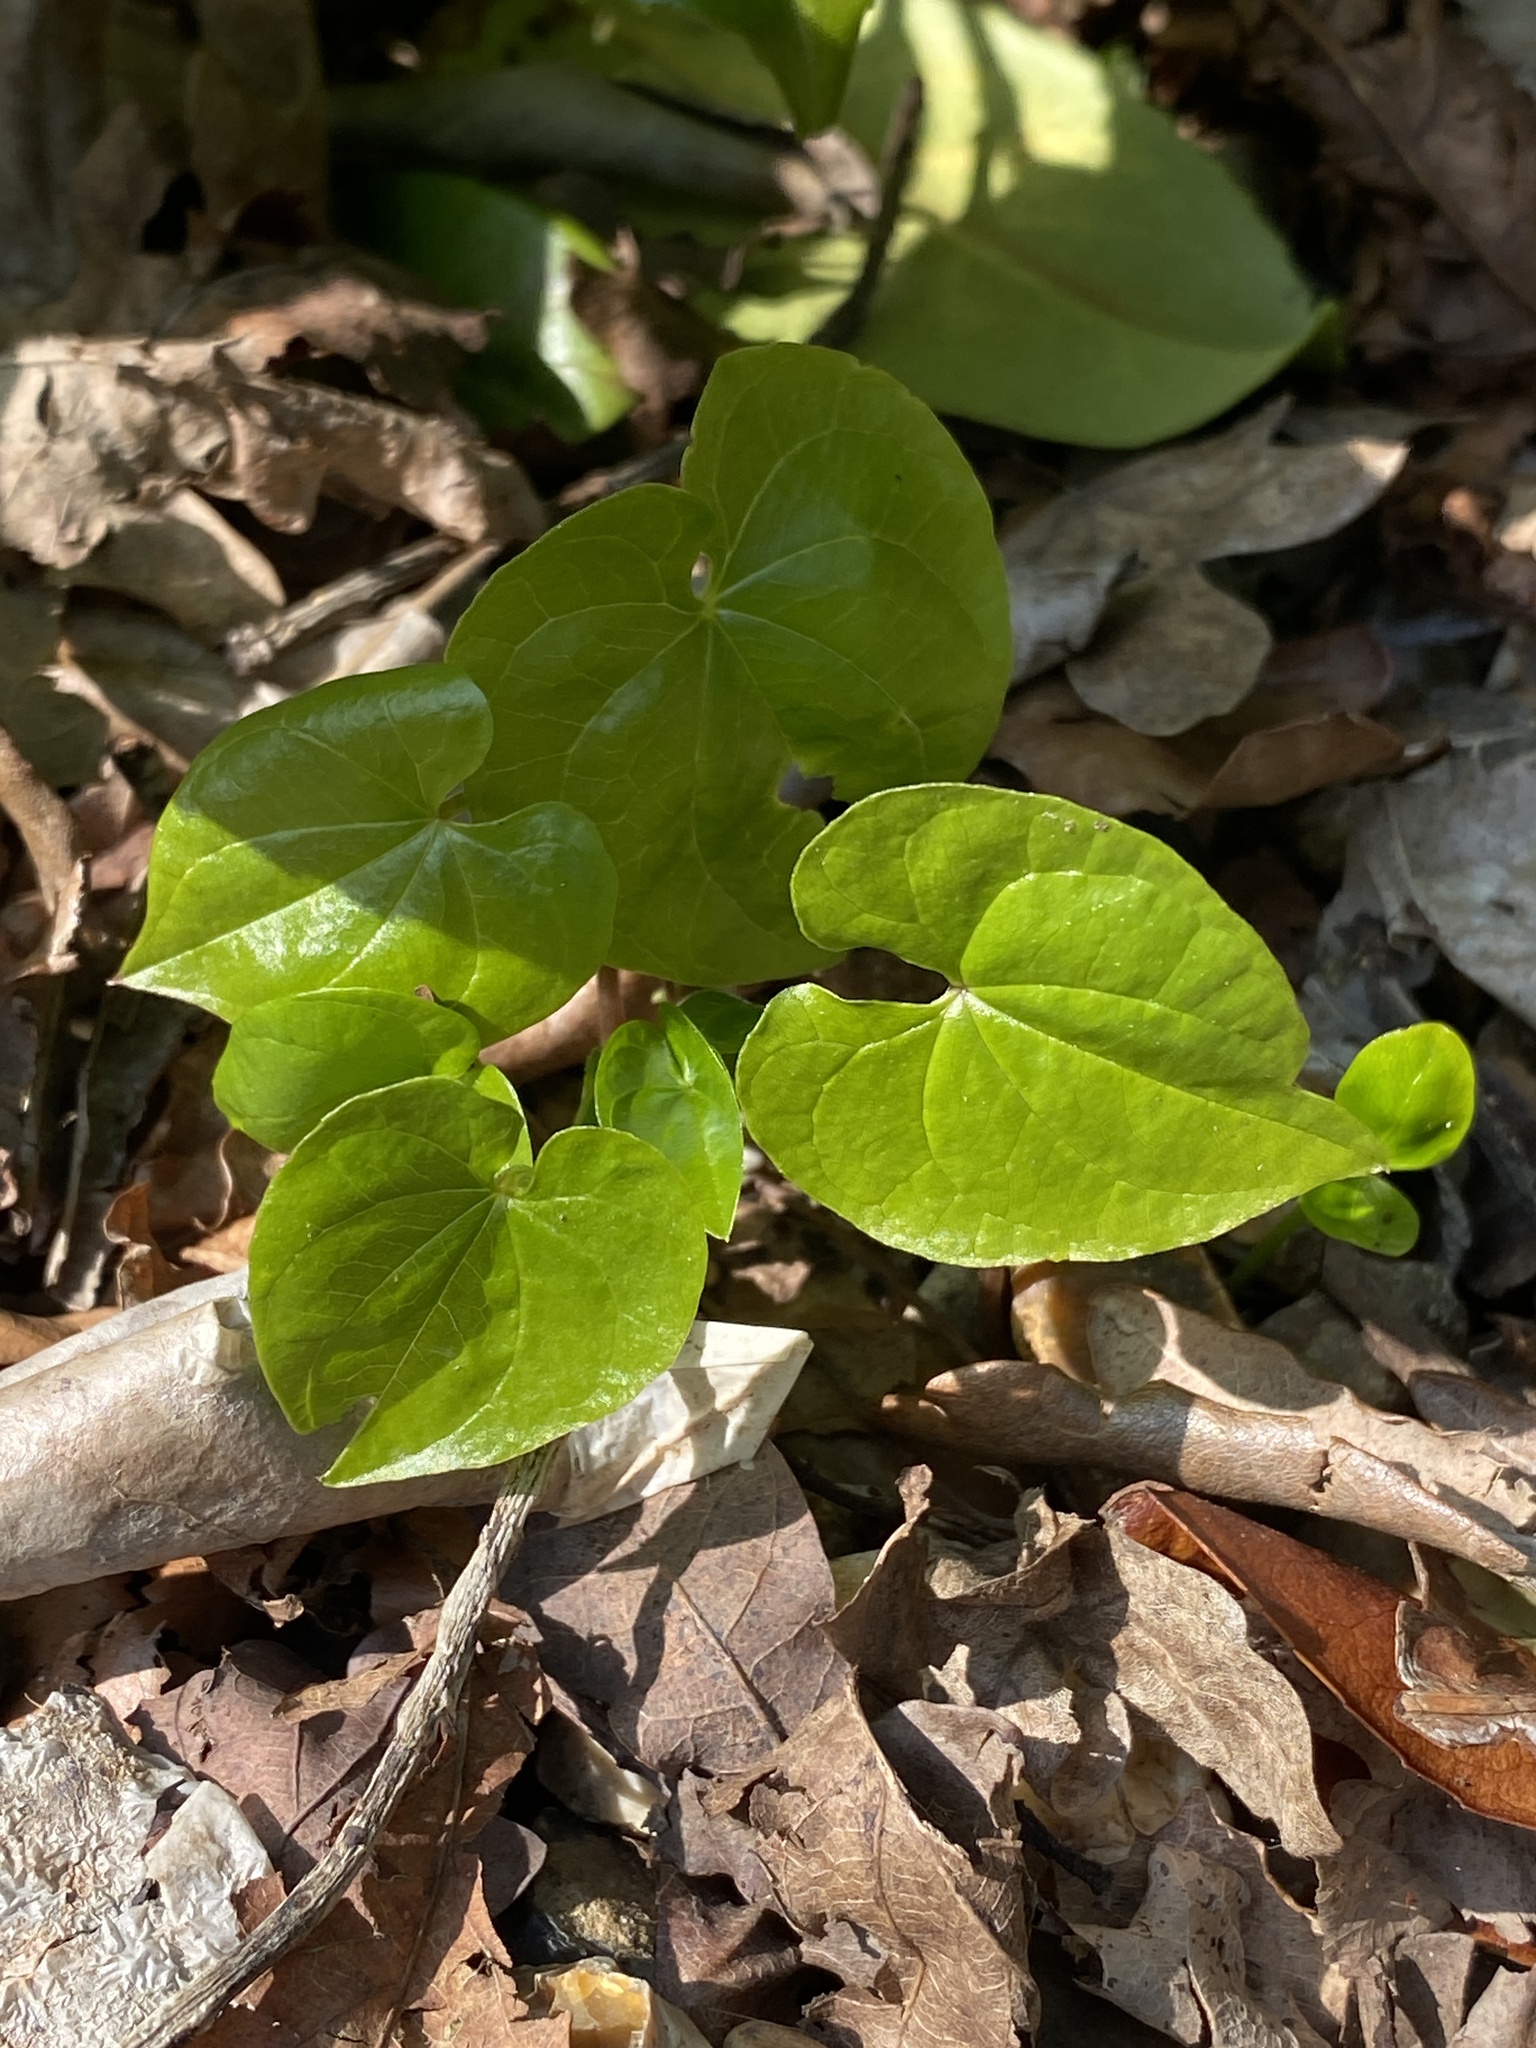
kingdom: Plantae
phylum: Tracheophyta
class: Liliopsida
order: Dioscoreales
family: Dioscoreaceae
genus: Dioscorea
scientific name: Dioscorea communis
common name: Black-bindweed
